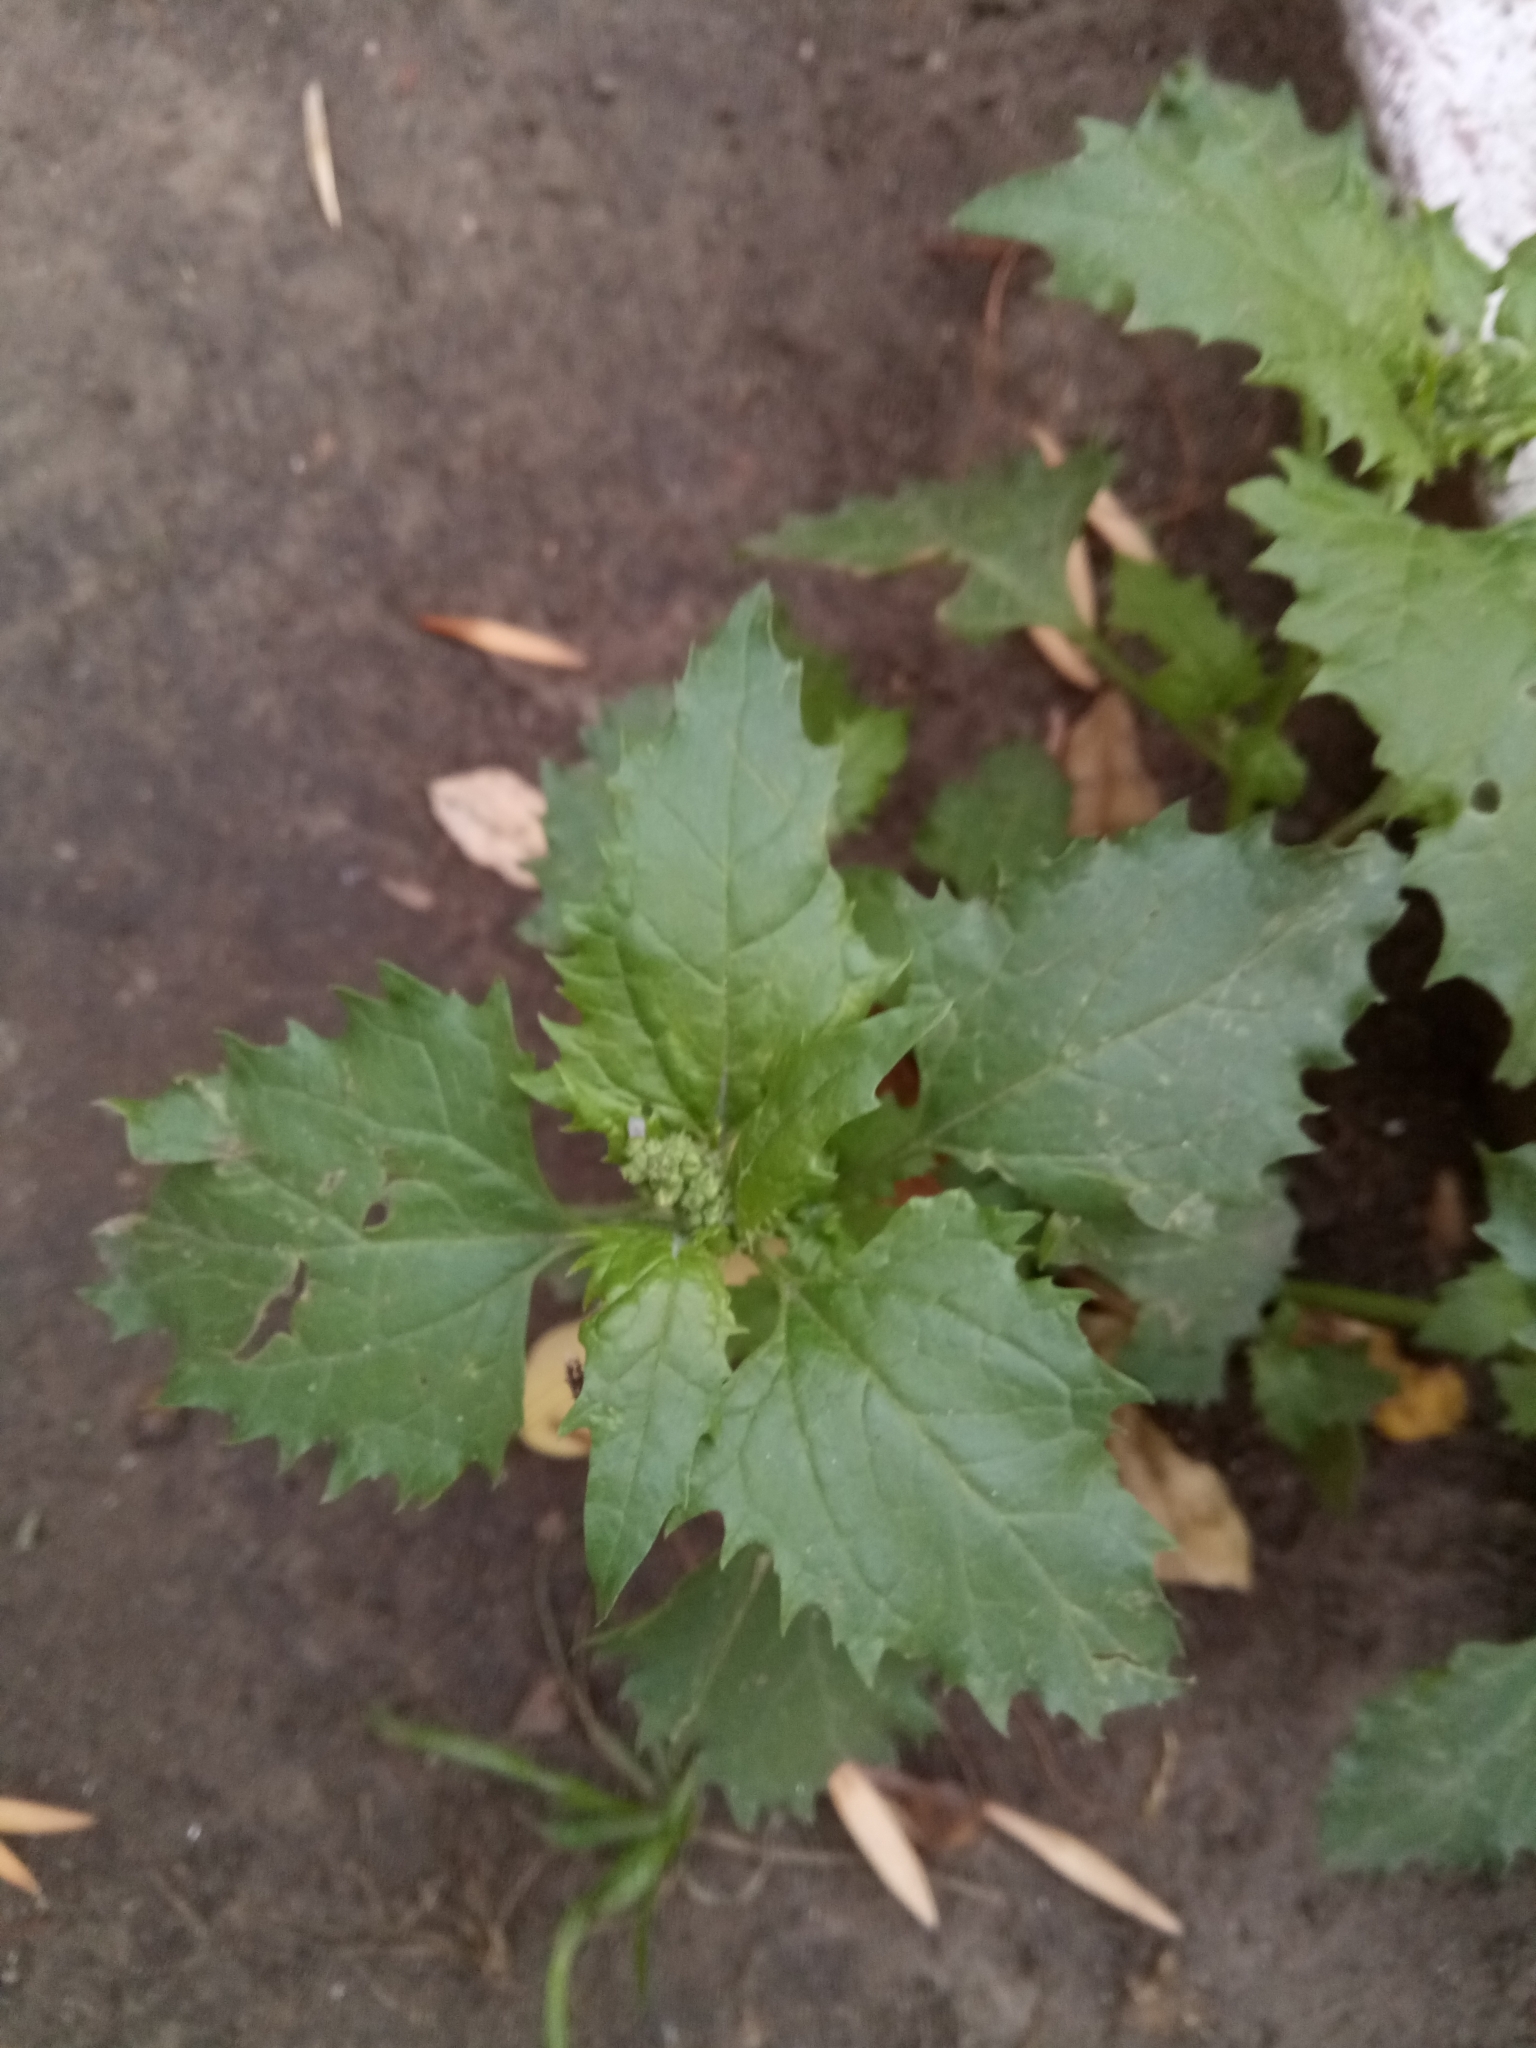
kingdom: Plantae
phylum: Tracheophyta
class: Magnoliopsida
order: Caryophyllales
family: Amaranthaceae
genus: Chenopodiastrum
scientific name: Chenopodiastrum murale
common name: Sowbane
